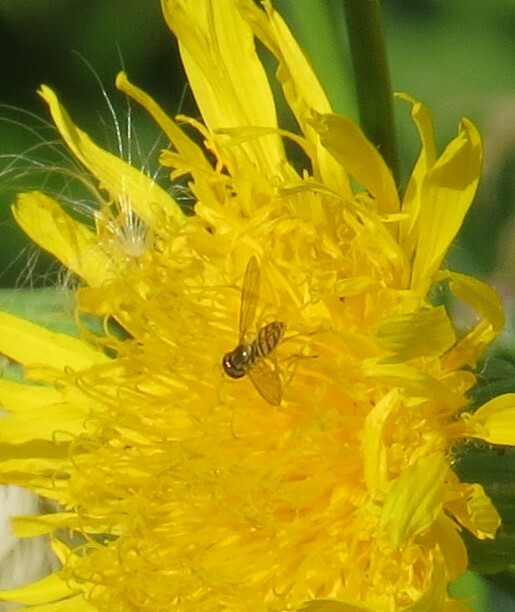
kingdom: Animalia
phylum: Arthropoda
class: Insecta
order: Diptera
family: Syrphidae
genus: Toxomerus
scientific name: Toxomerus marginatus
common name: Syrphid fly
